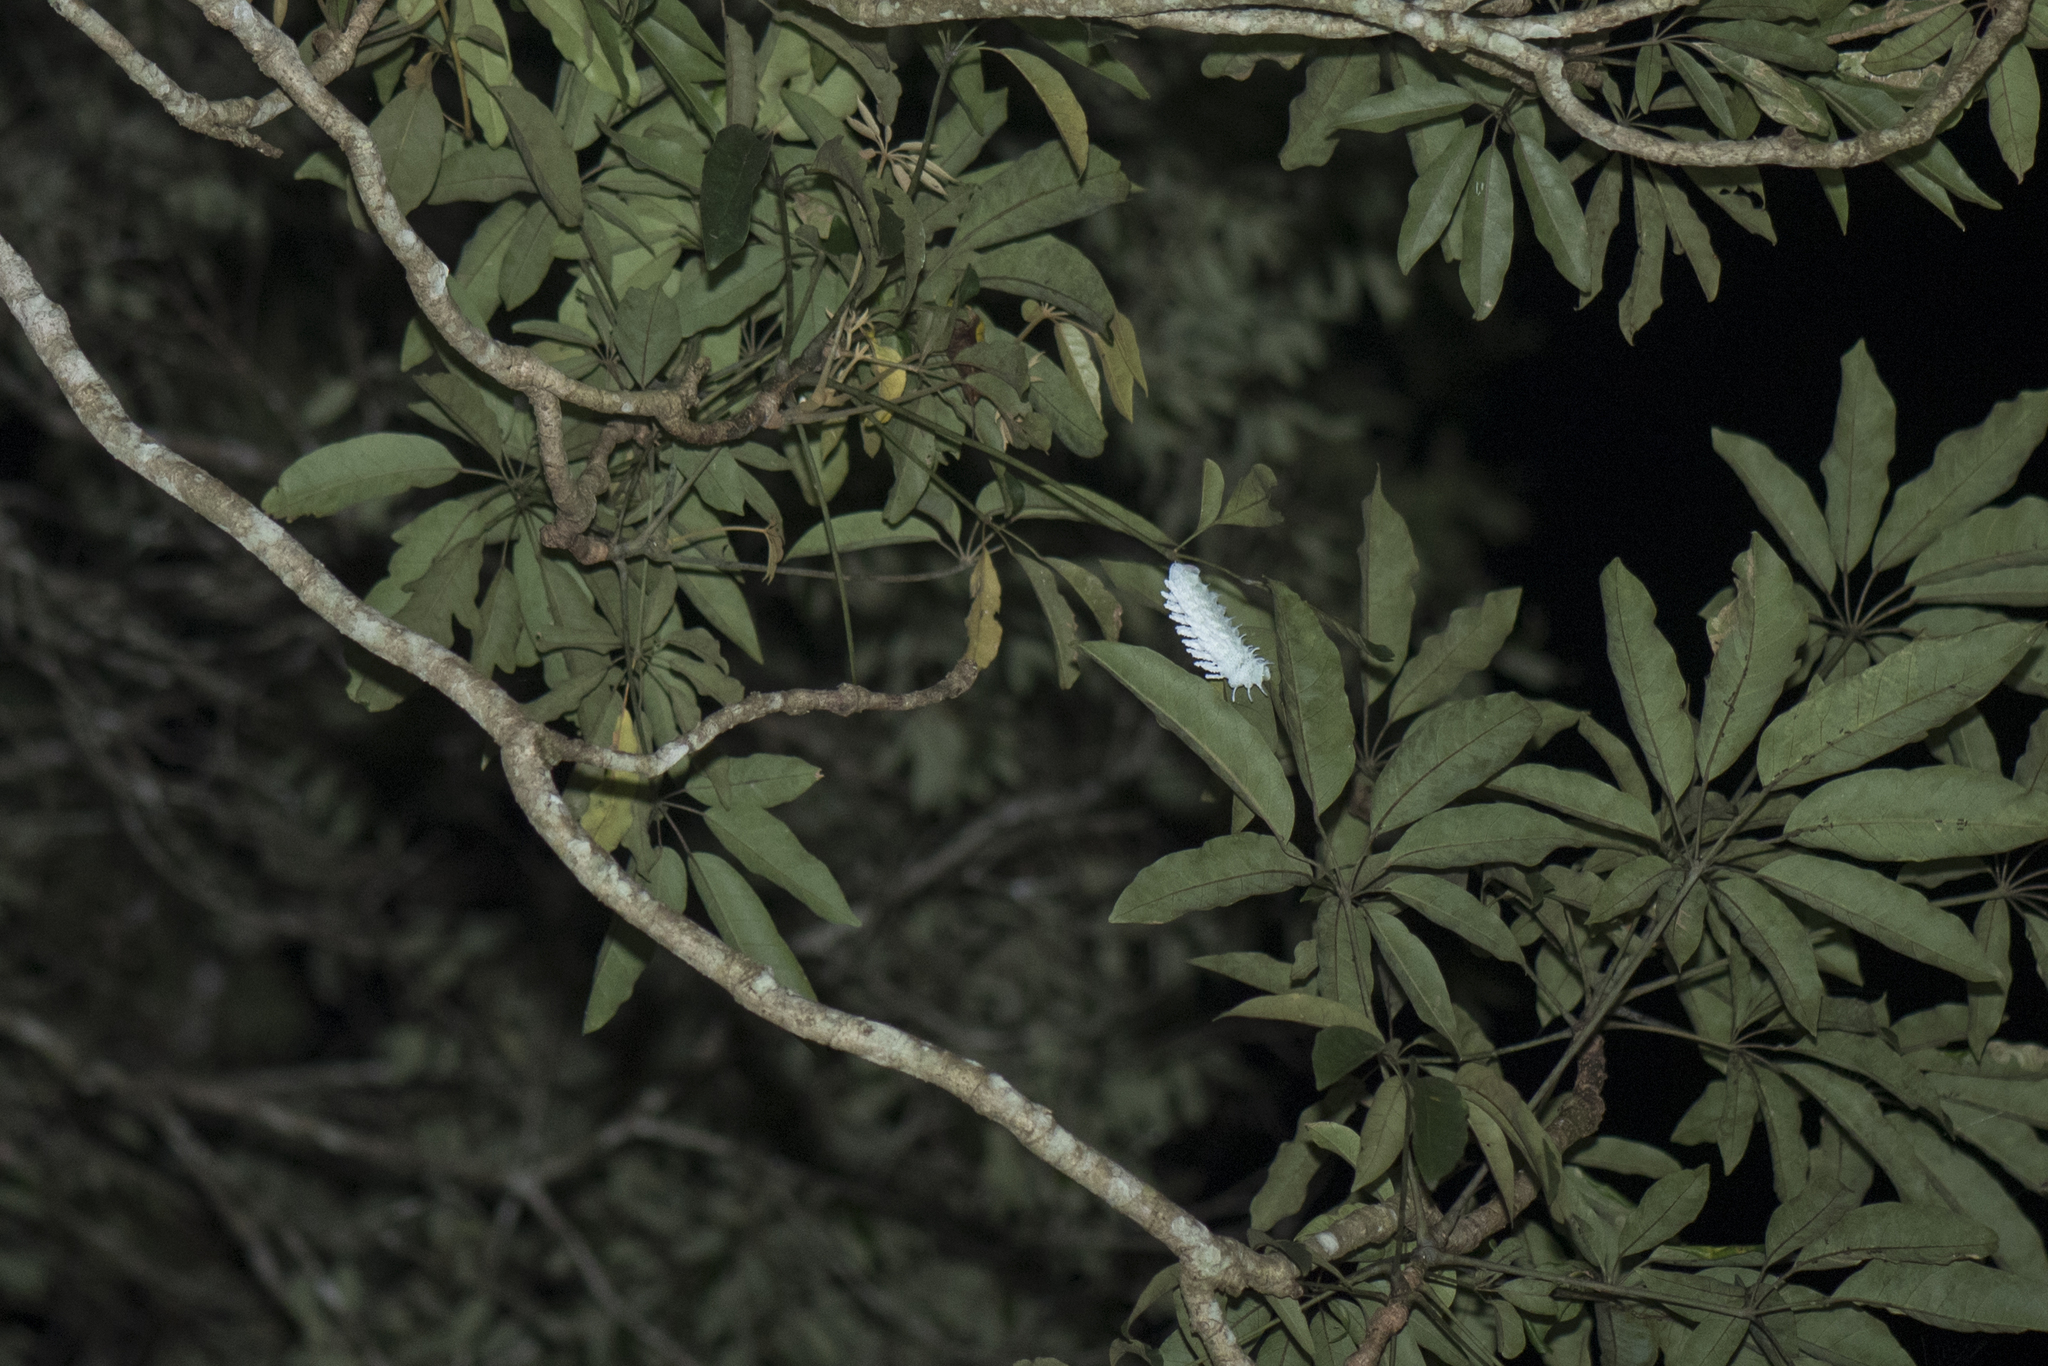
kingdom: Animalia
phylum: Arthropoda
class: Insecta
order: Lepidoptera
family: Saturniidae
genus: Attacus
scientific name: Attacus atlas
